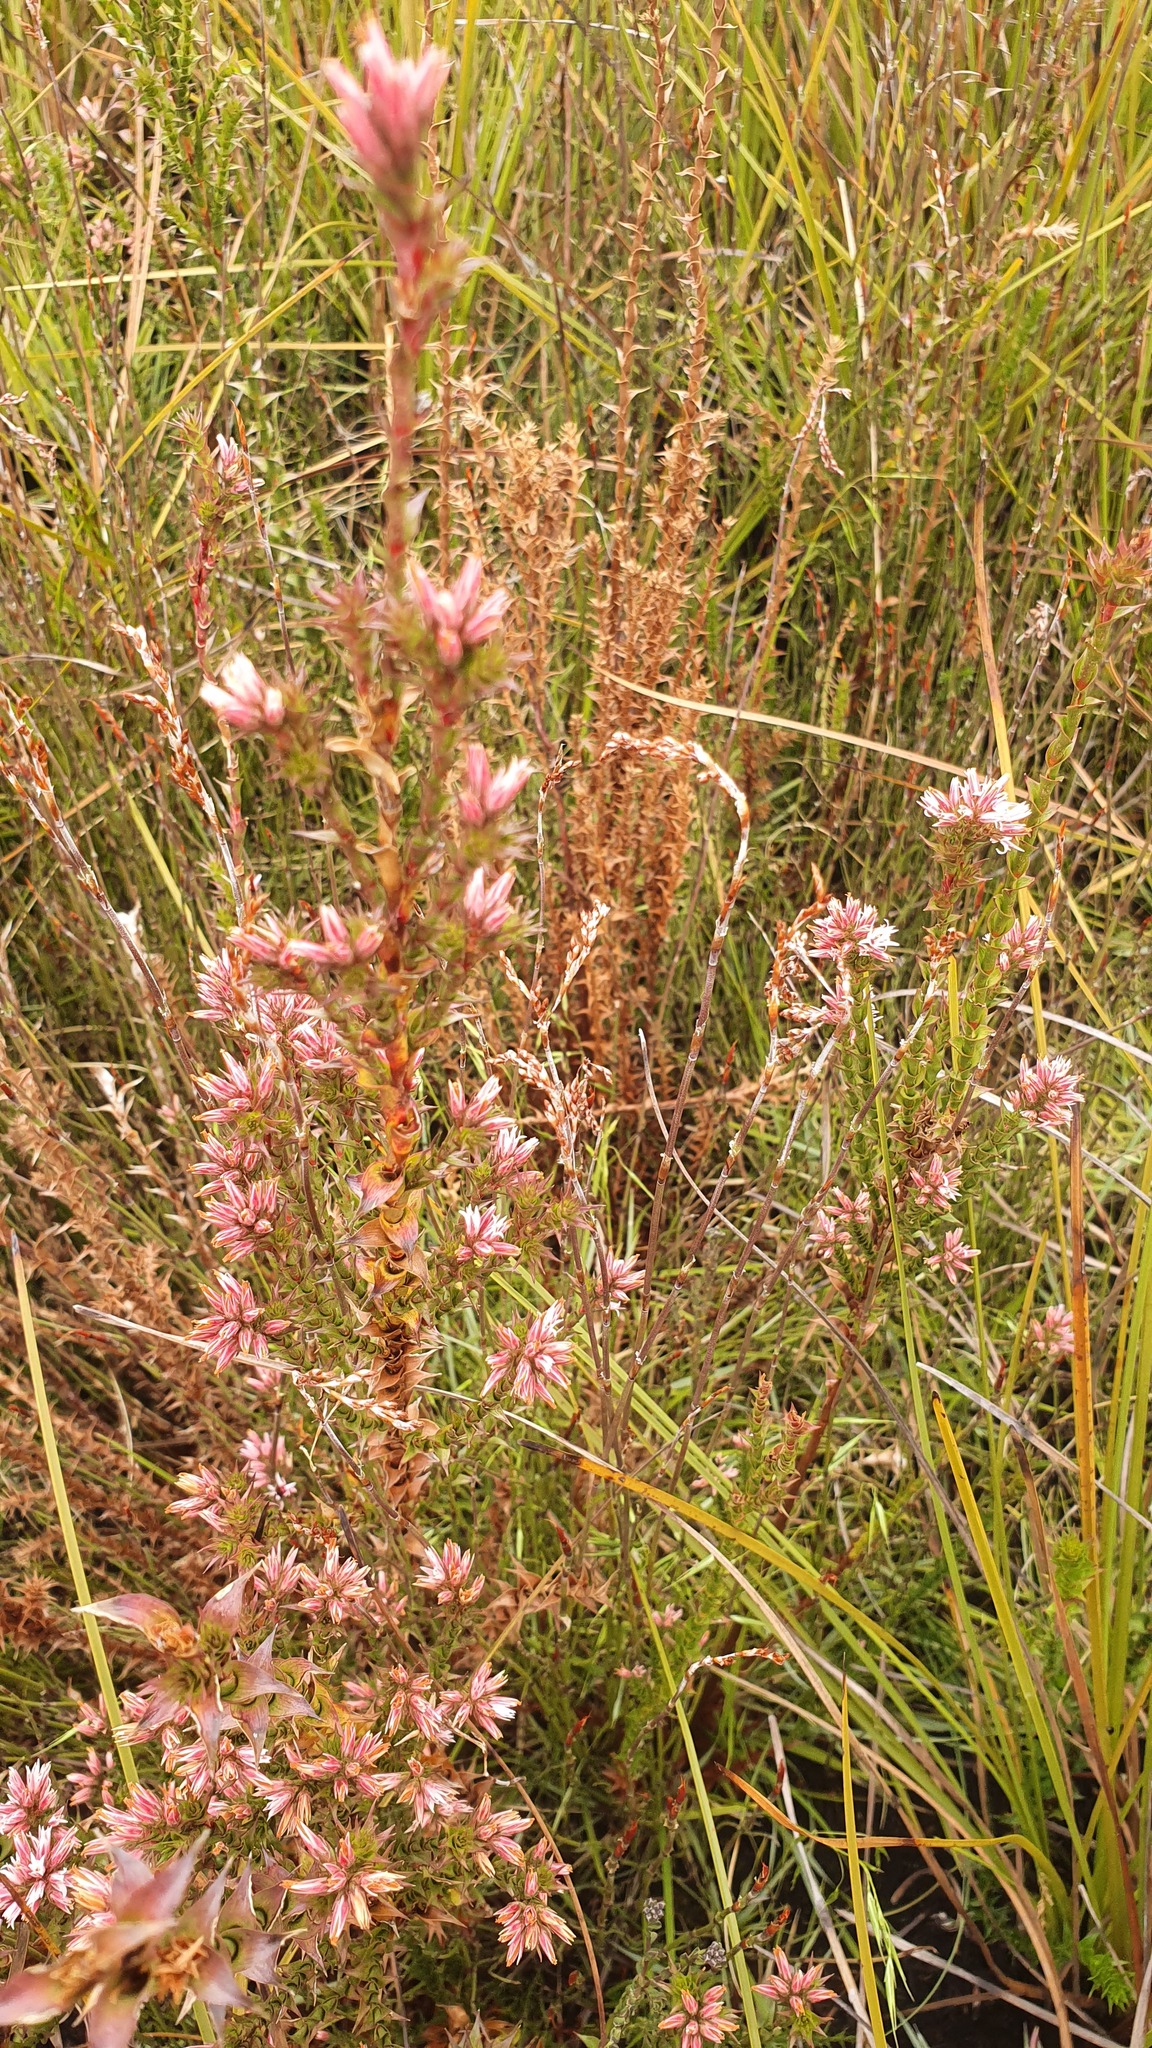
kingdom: Plantae
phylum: Tracheophyta
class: Magnoliopsida
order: Ericales
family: Ericaceae
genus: Sprengelia
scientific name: Sprengelia incarnata
